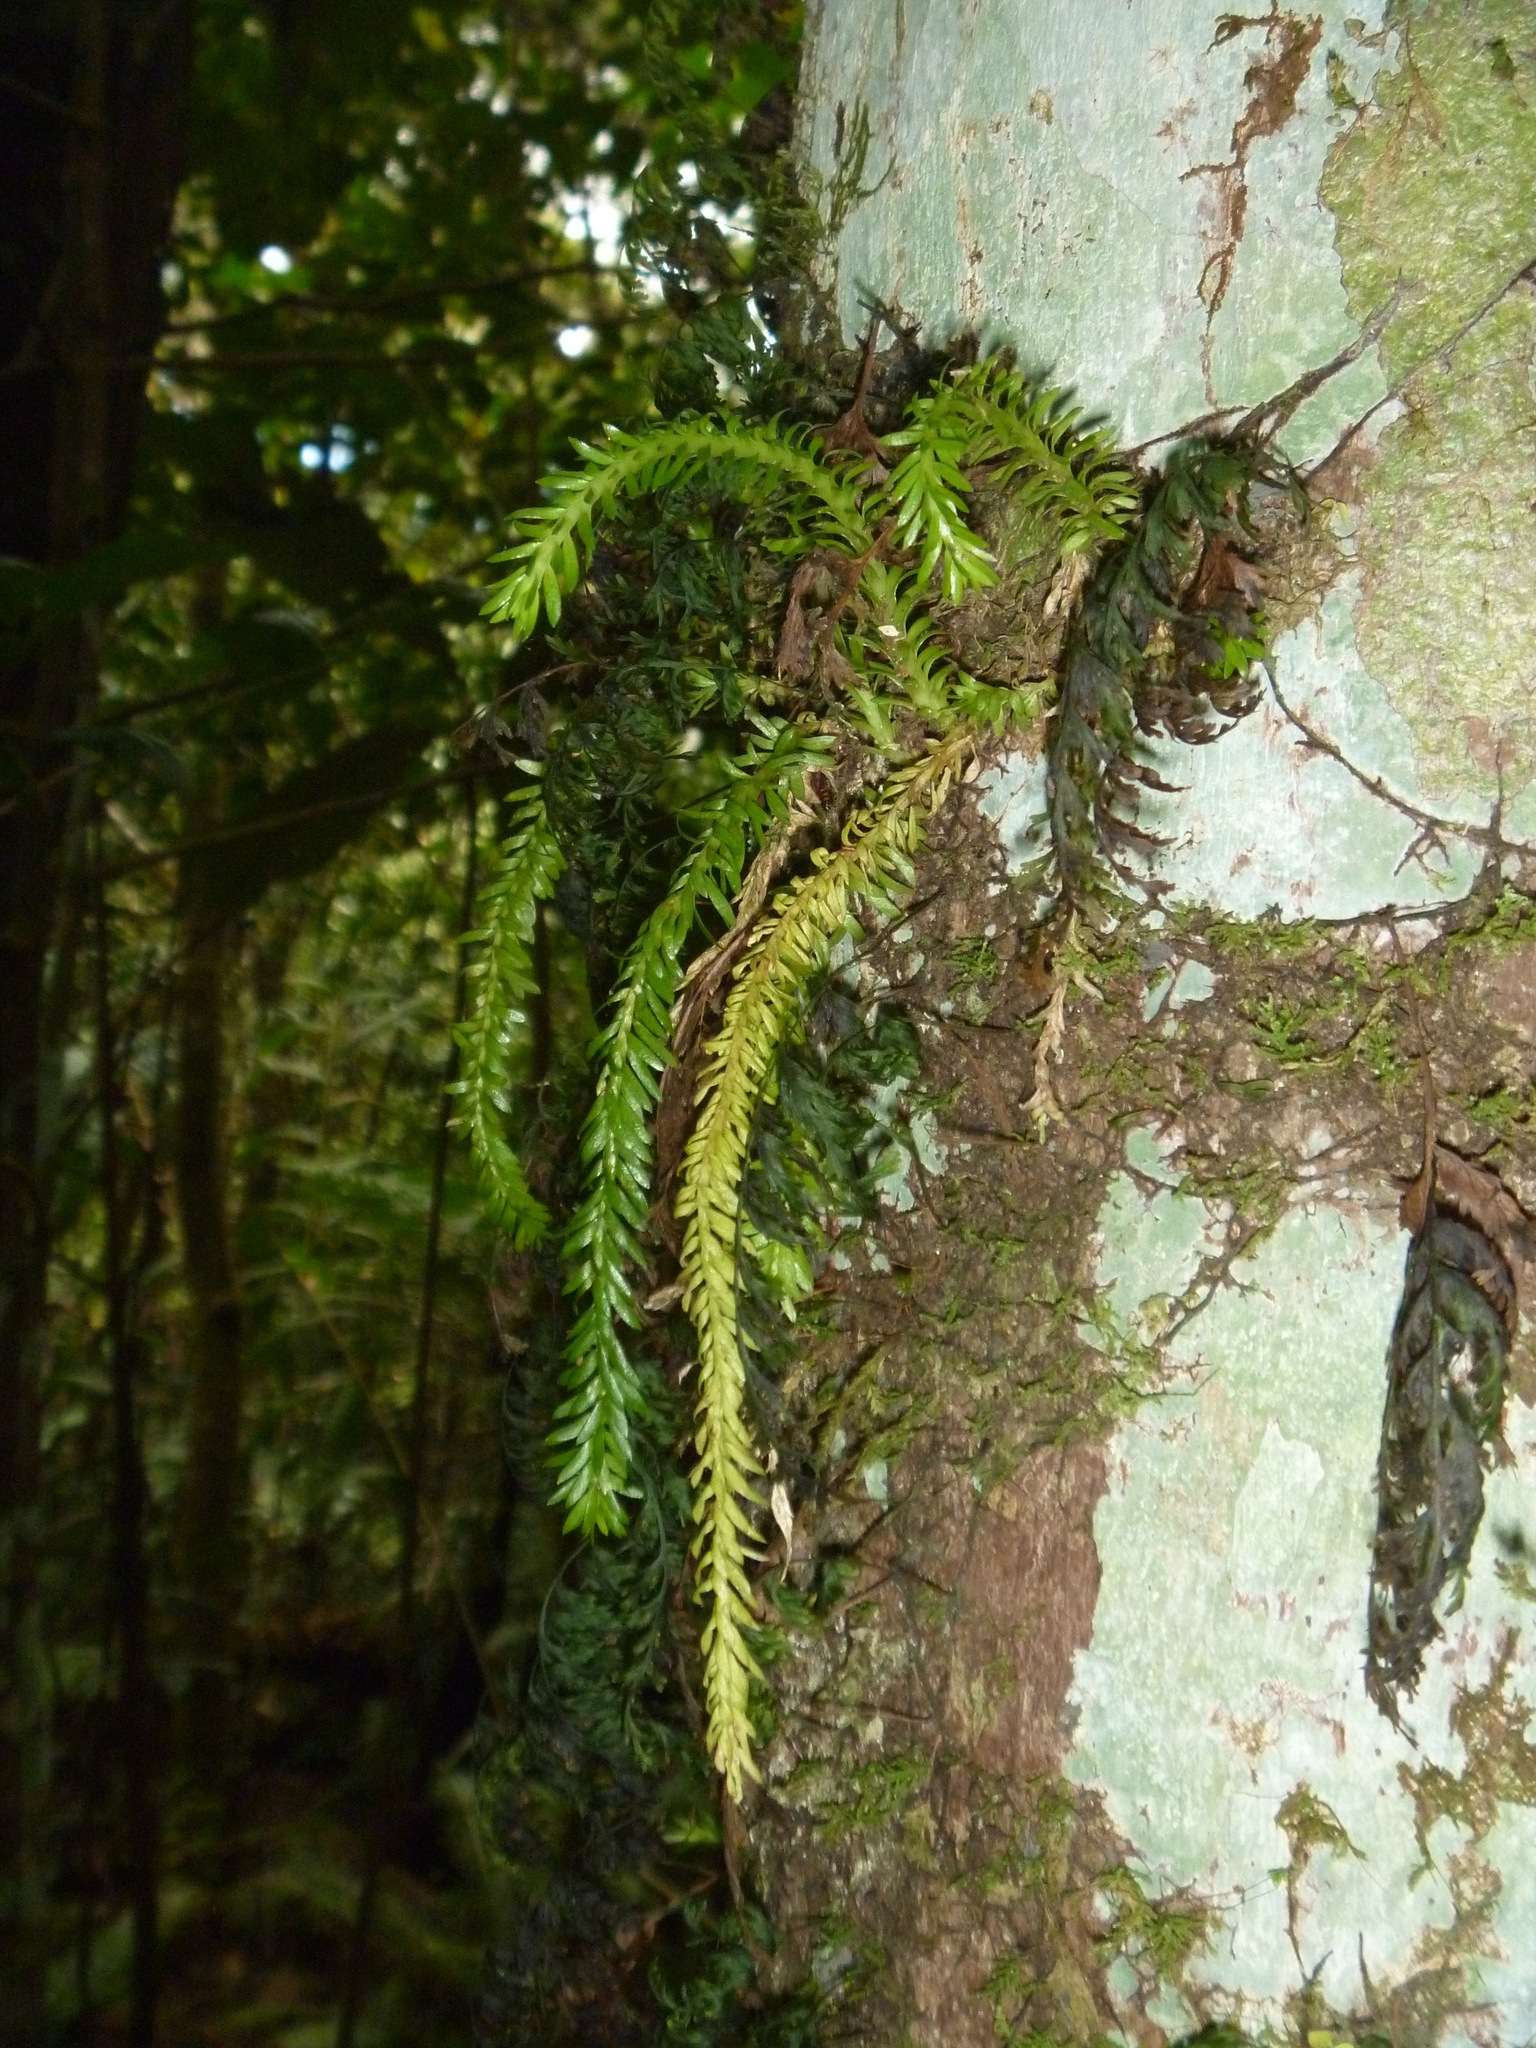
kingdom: Plantae
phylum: Tracheophyta
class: Lycopodiopsida
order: Lycopodiales
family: Lycopodiaceae
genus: Phlegmariurus
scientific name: Phlegmariurus balansae
